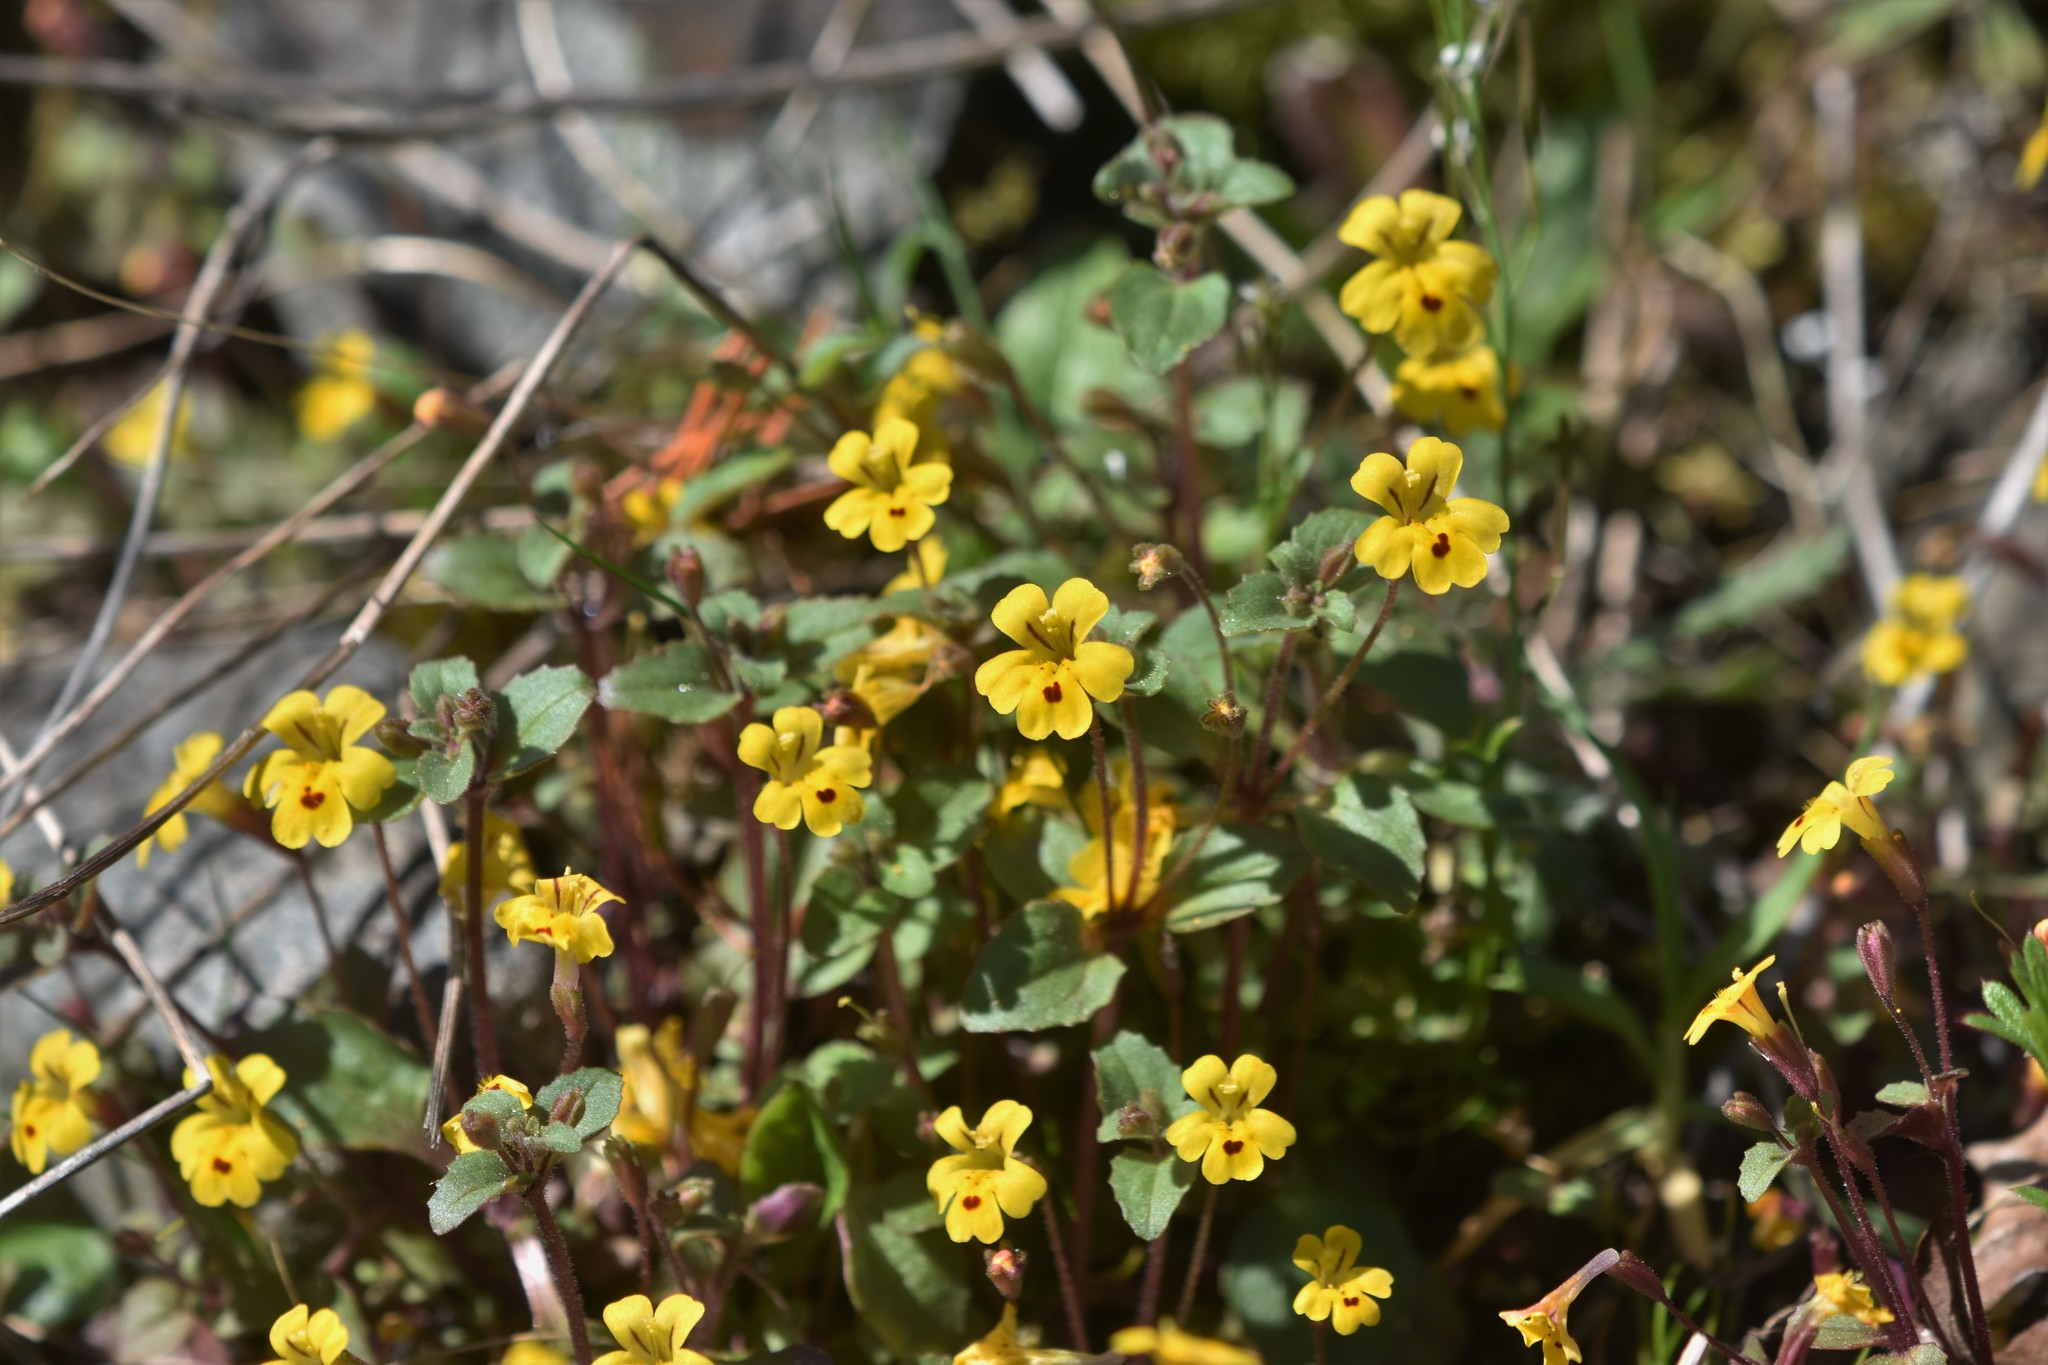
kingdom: Plantae
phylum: Tracheophyta
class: Magnoliopsida
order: Lamiales
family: Phrymaceae
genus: Erythranthe
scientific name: Erythranthe alsinoides
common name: Chickweed monkeyflower
